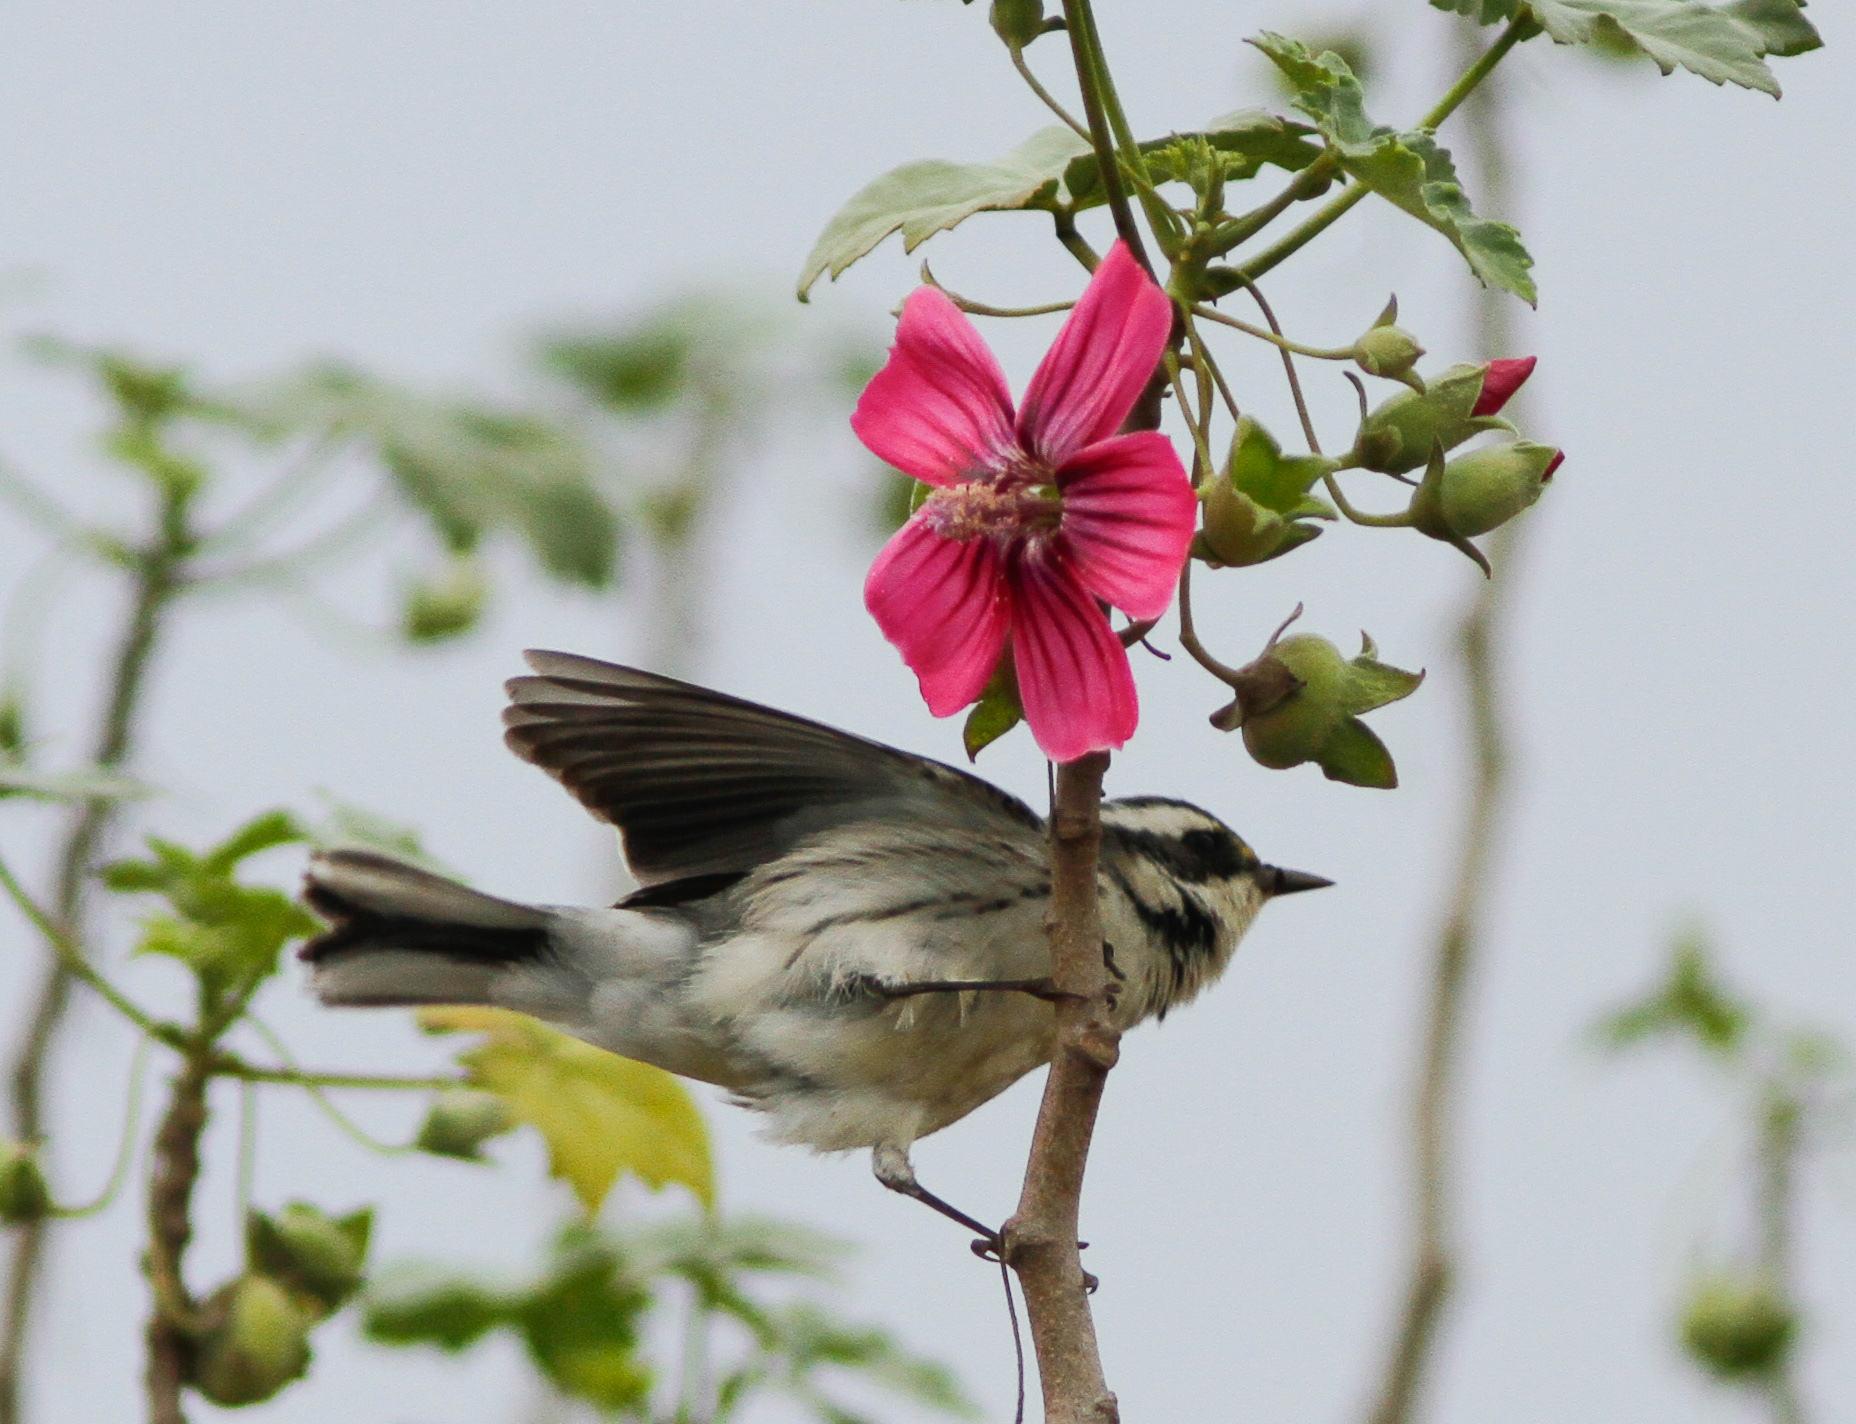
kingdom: Animalia
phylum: Chordata
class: Aves
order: Passeriformes
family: Parulidae
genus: Setophaga
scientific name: Setophaga nigrescens
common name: Black-throated gray warbler
